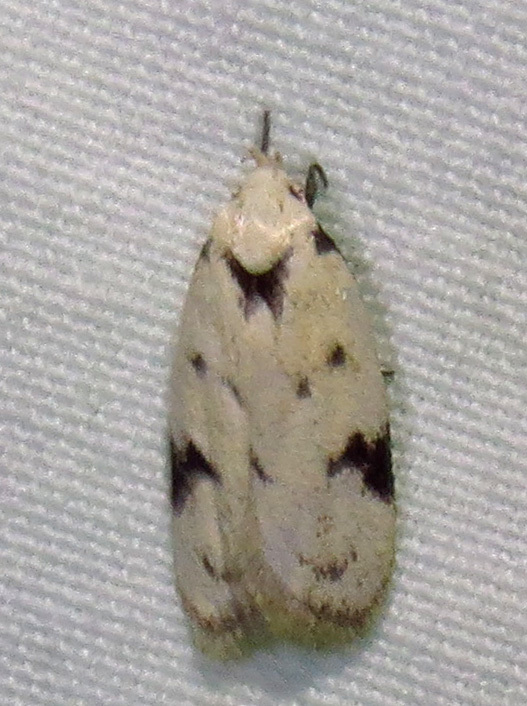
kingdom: Animalia
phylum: Arthropoda
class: Insecta
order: Lepidoptera
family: Oecophoridae
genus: Inga
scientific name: Inga sparsiciliella
